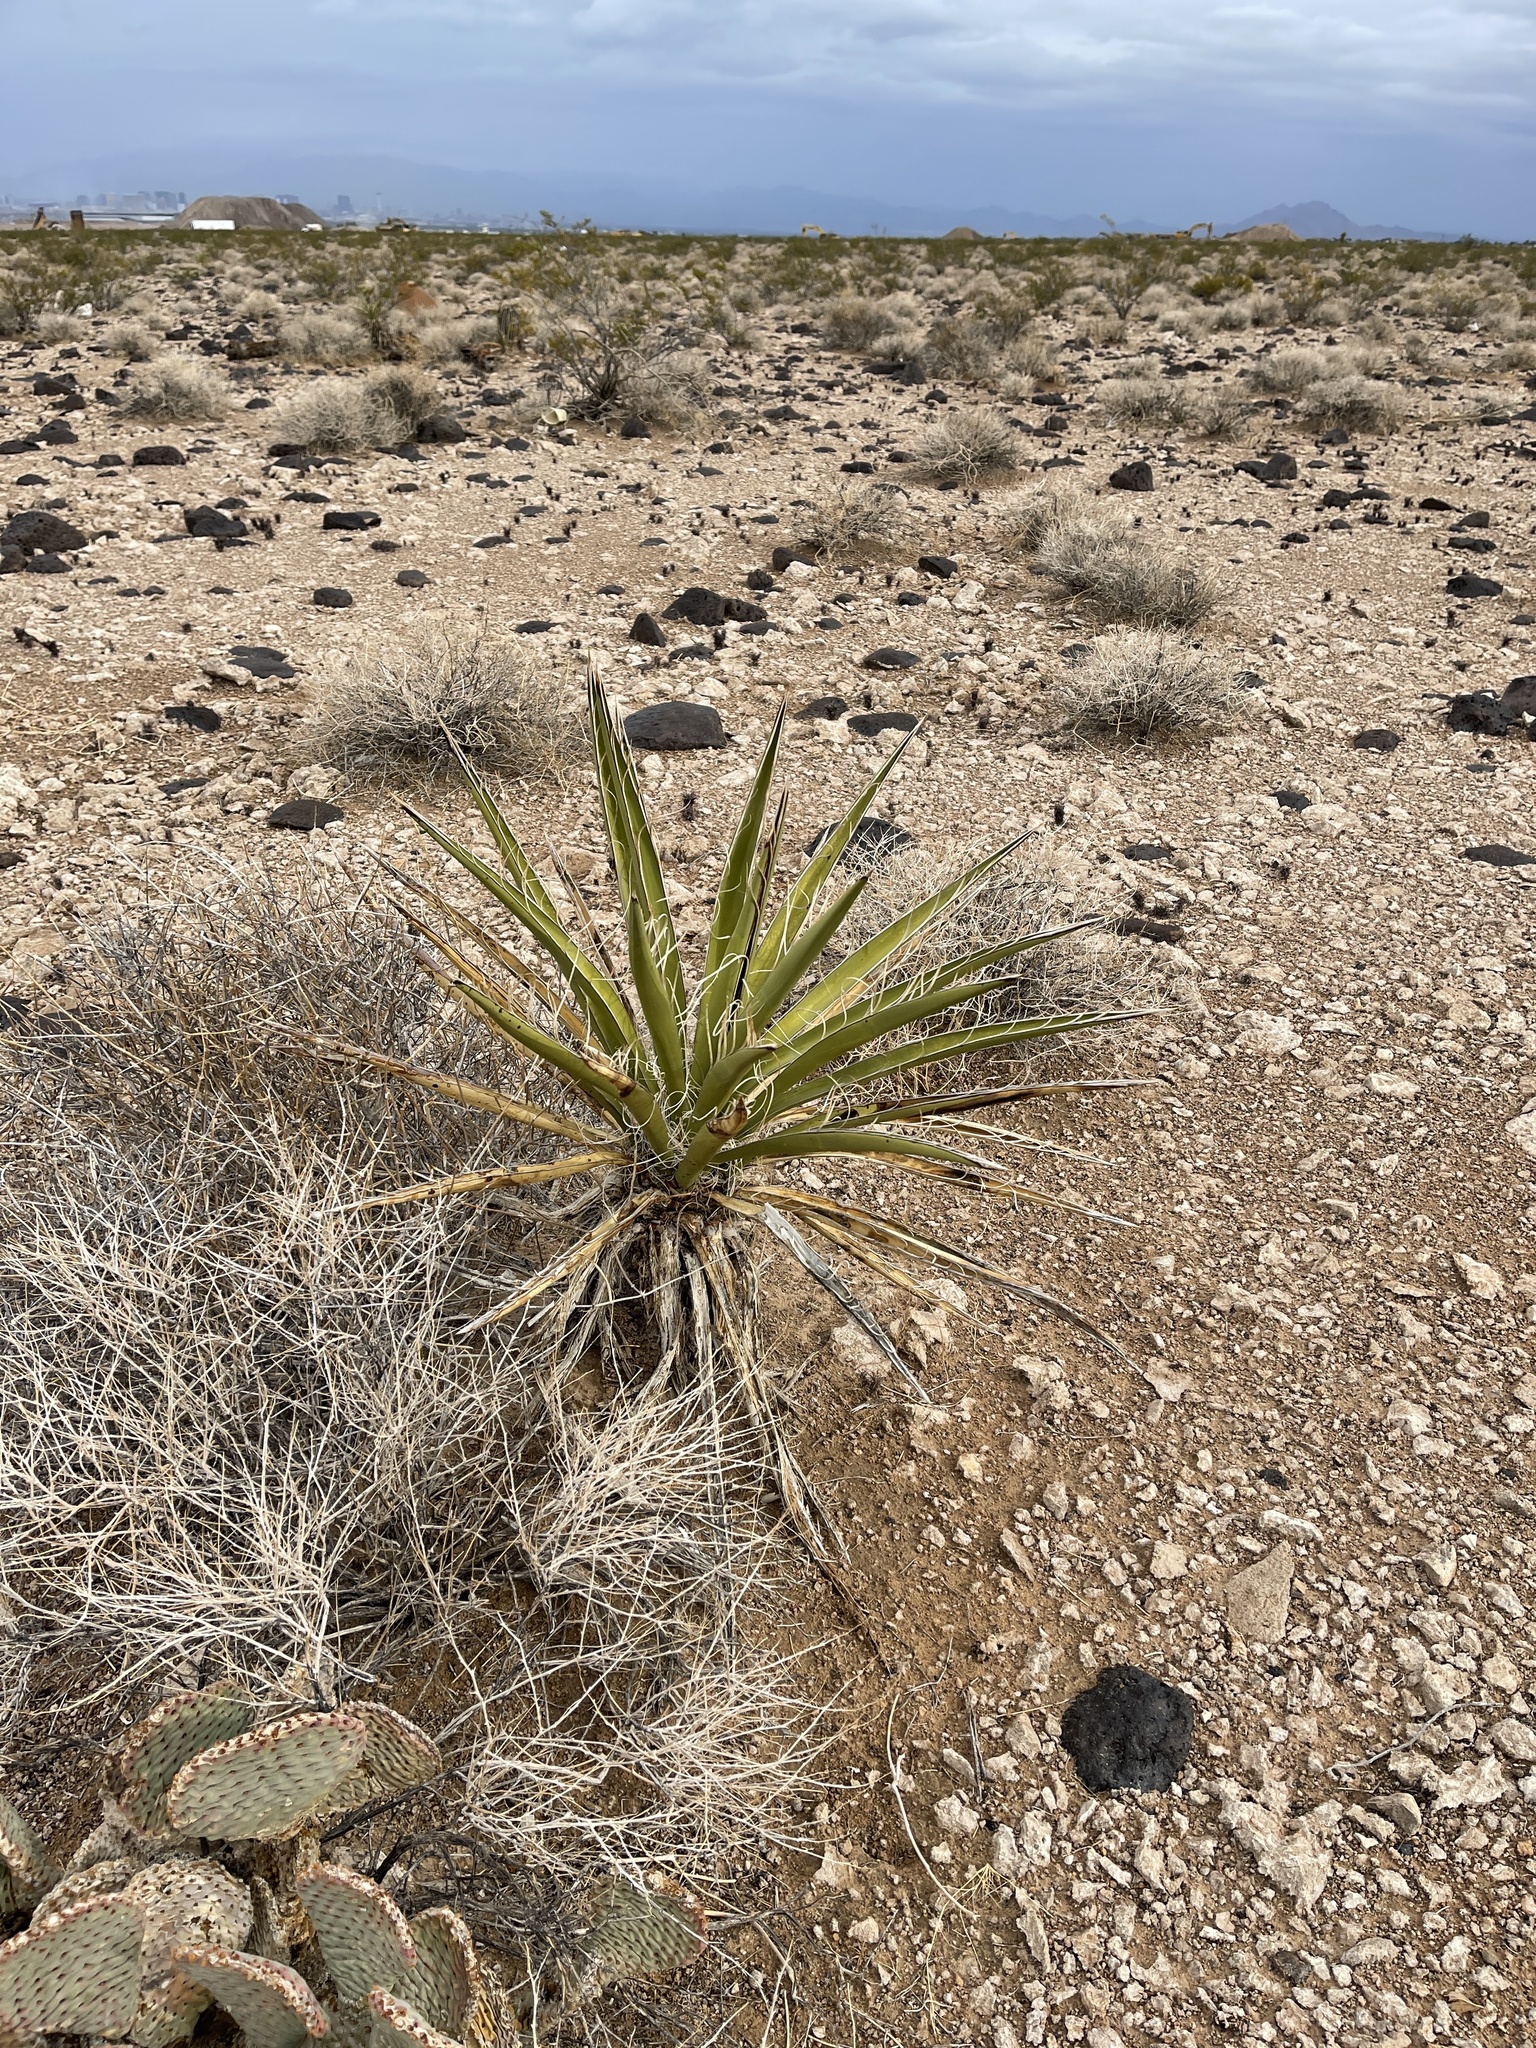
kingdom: Plantae
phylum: Tracheophyta
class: Liliopsida
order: Asparagales
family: Asparagaceae
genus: Yucca
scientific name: Yucca schidigera
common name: Mojave yucca
